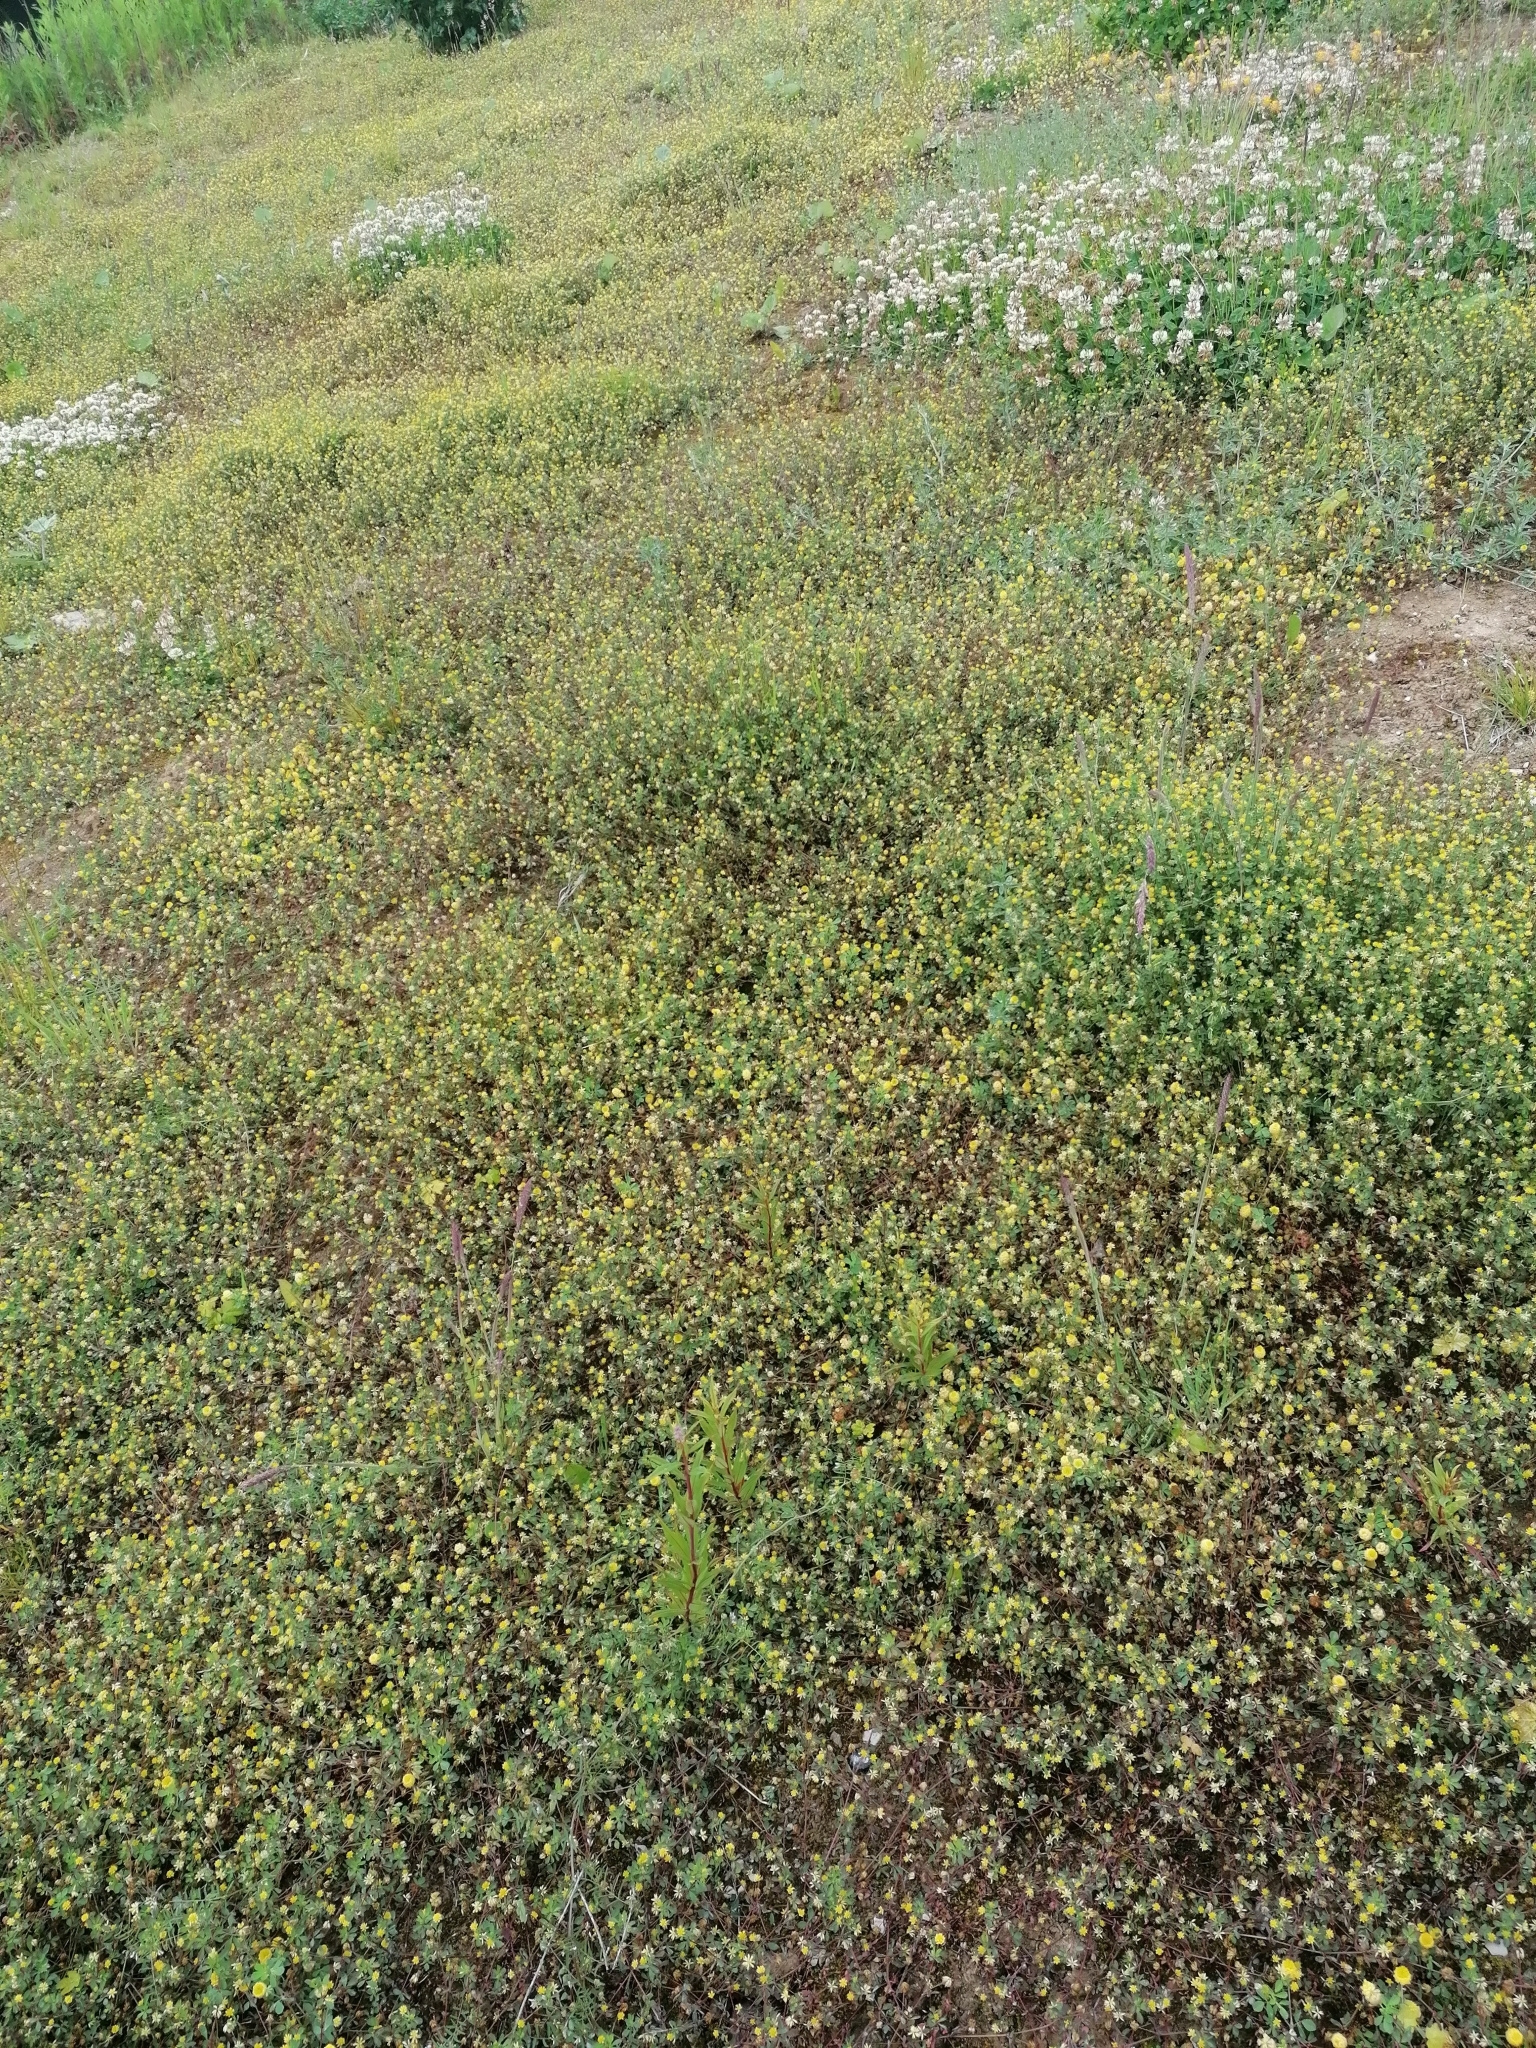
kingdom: Plantae
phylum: Tracheophyta
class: Magnoliopsida
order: Fabales
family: Fabaceae
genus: Trifolium
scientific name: Trifolium campestre
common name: Field clover
